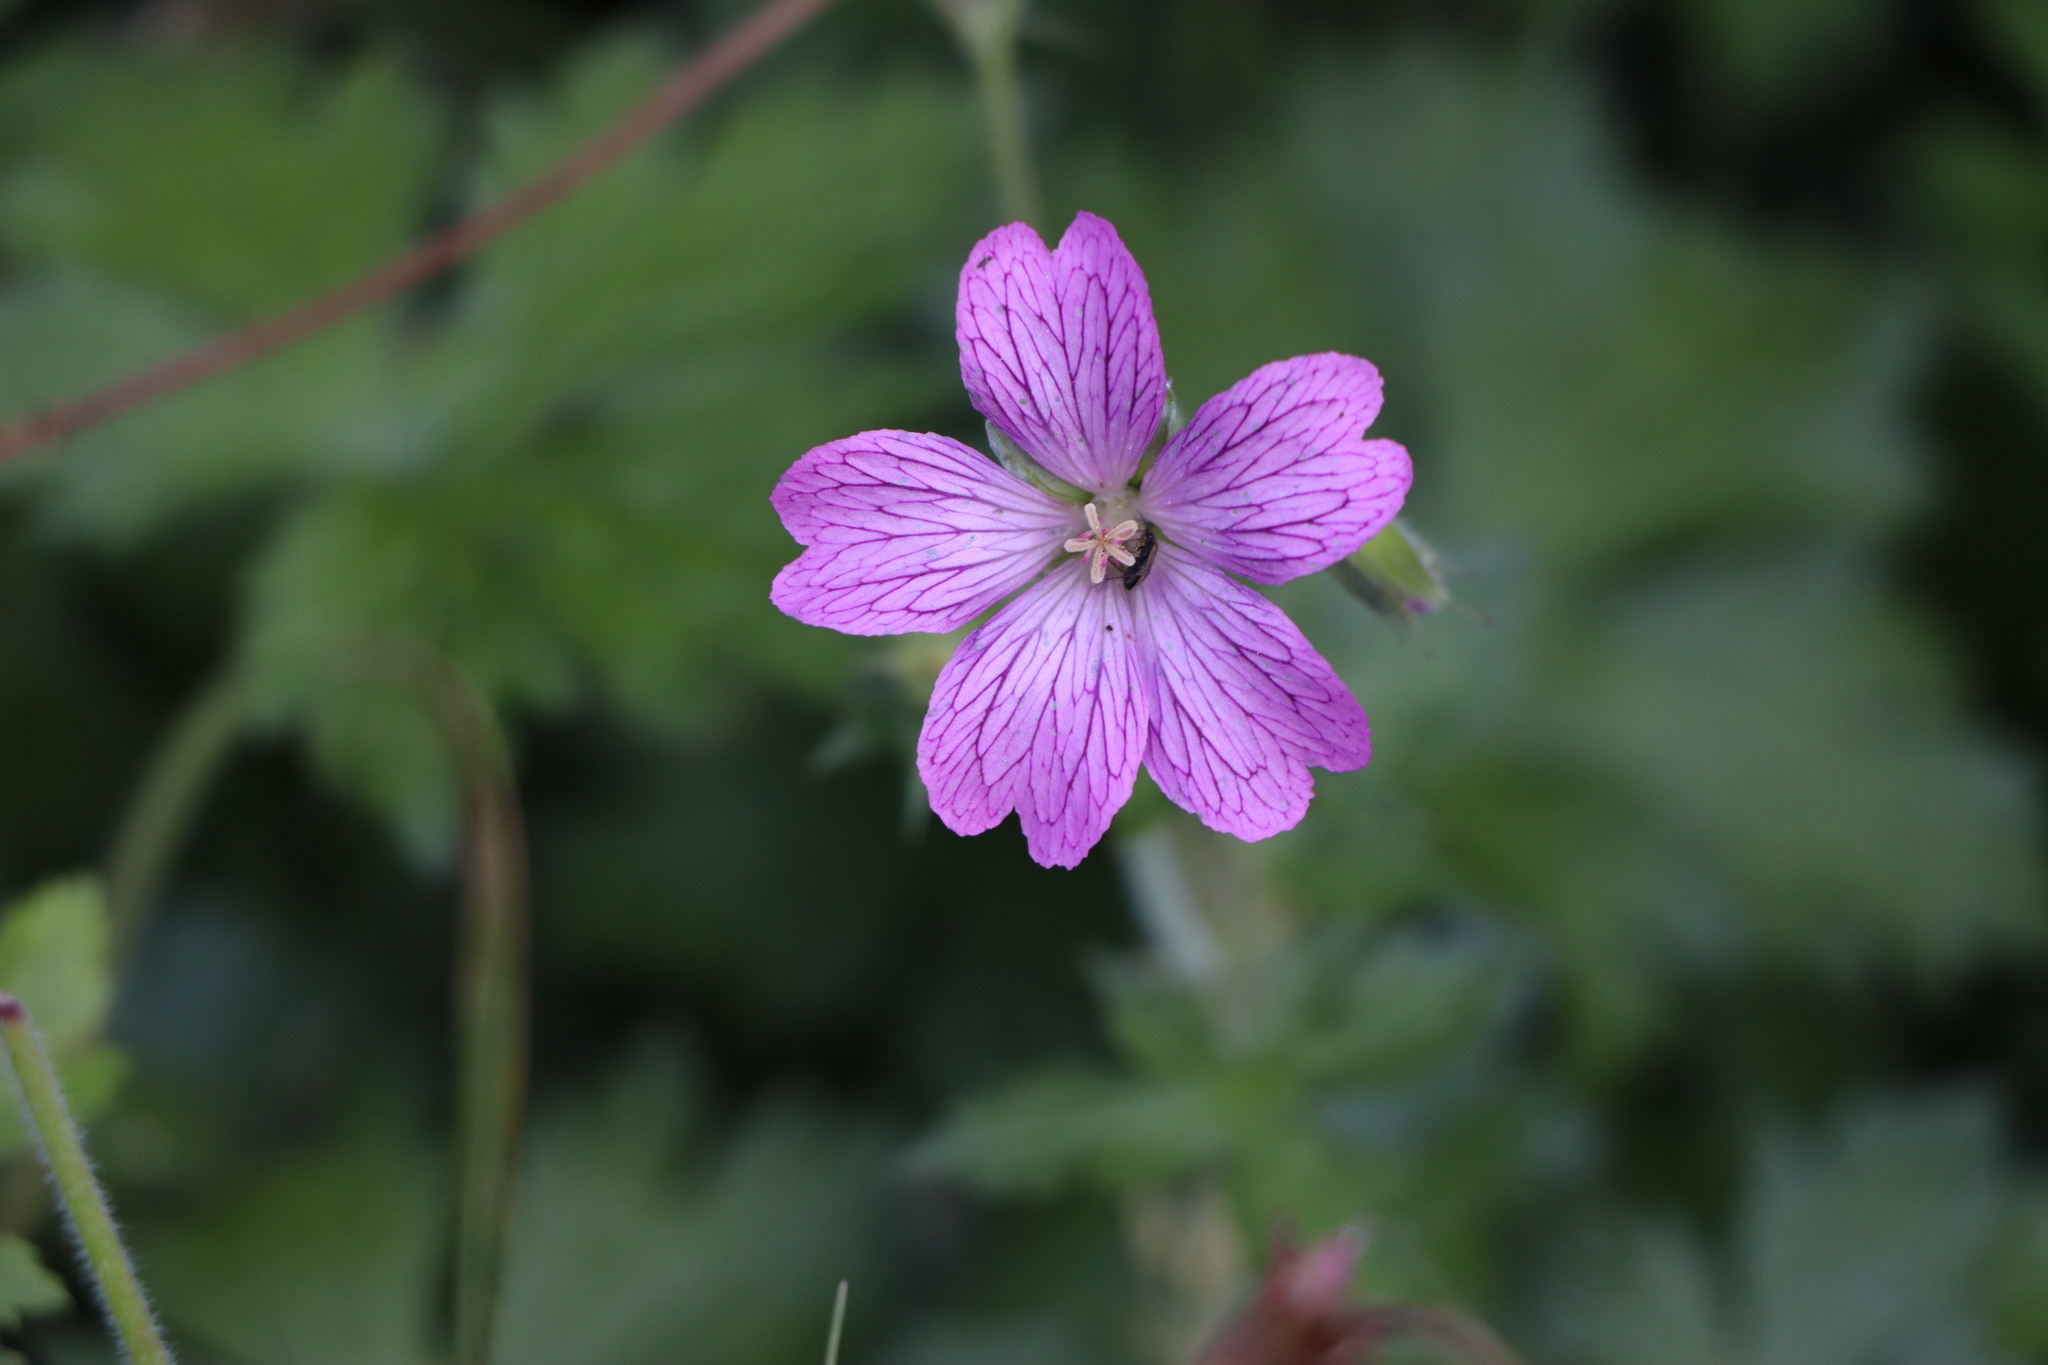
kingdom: Plantae
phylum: Tracheophyta
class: Magnoliopsida
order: Geraniales
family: Geraniaceae
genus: Geranium
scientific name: Geranium oxonianum
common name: Druce's crane's-bill
